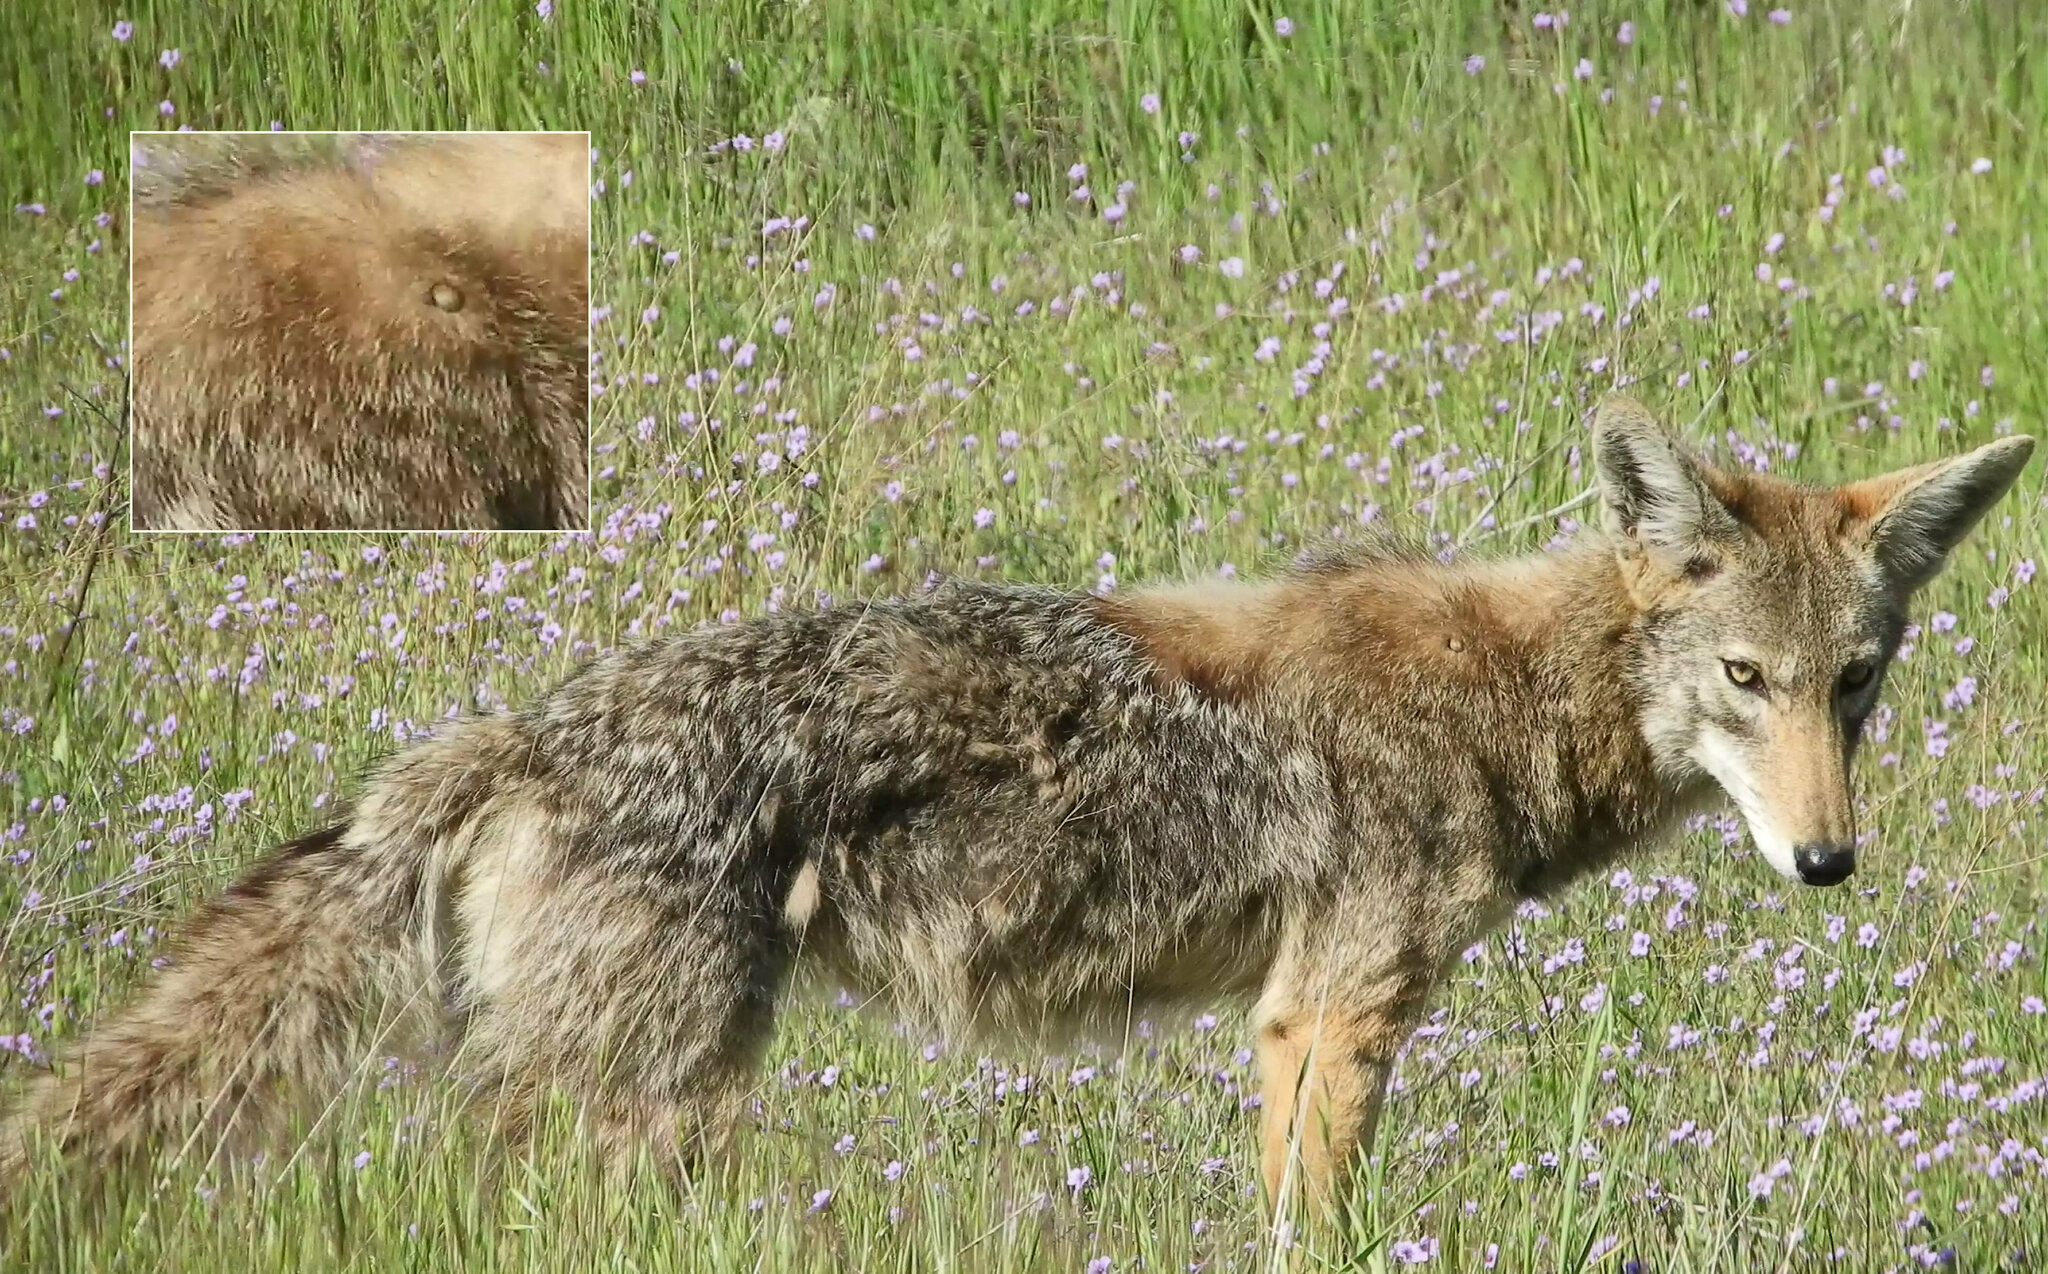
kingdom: Animalia
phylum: Chordata
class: Mammalia
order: Carnivora
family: Canidae
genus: Canis
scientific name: Canis latrans
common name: Coyote
